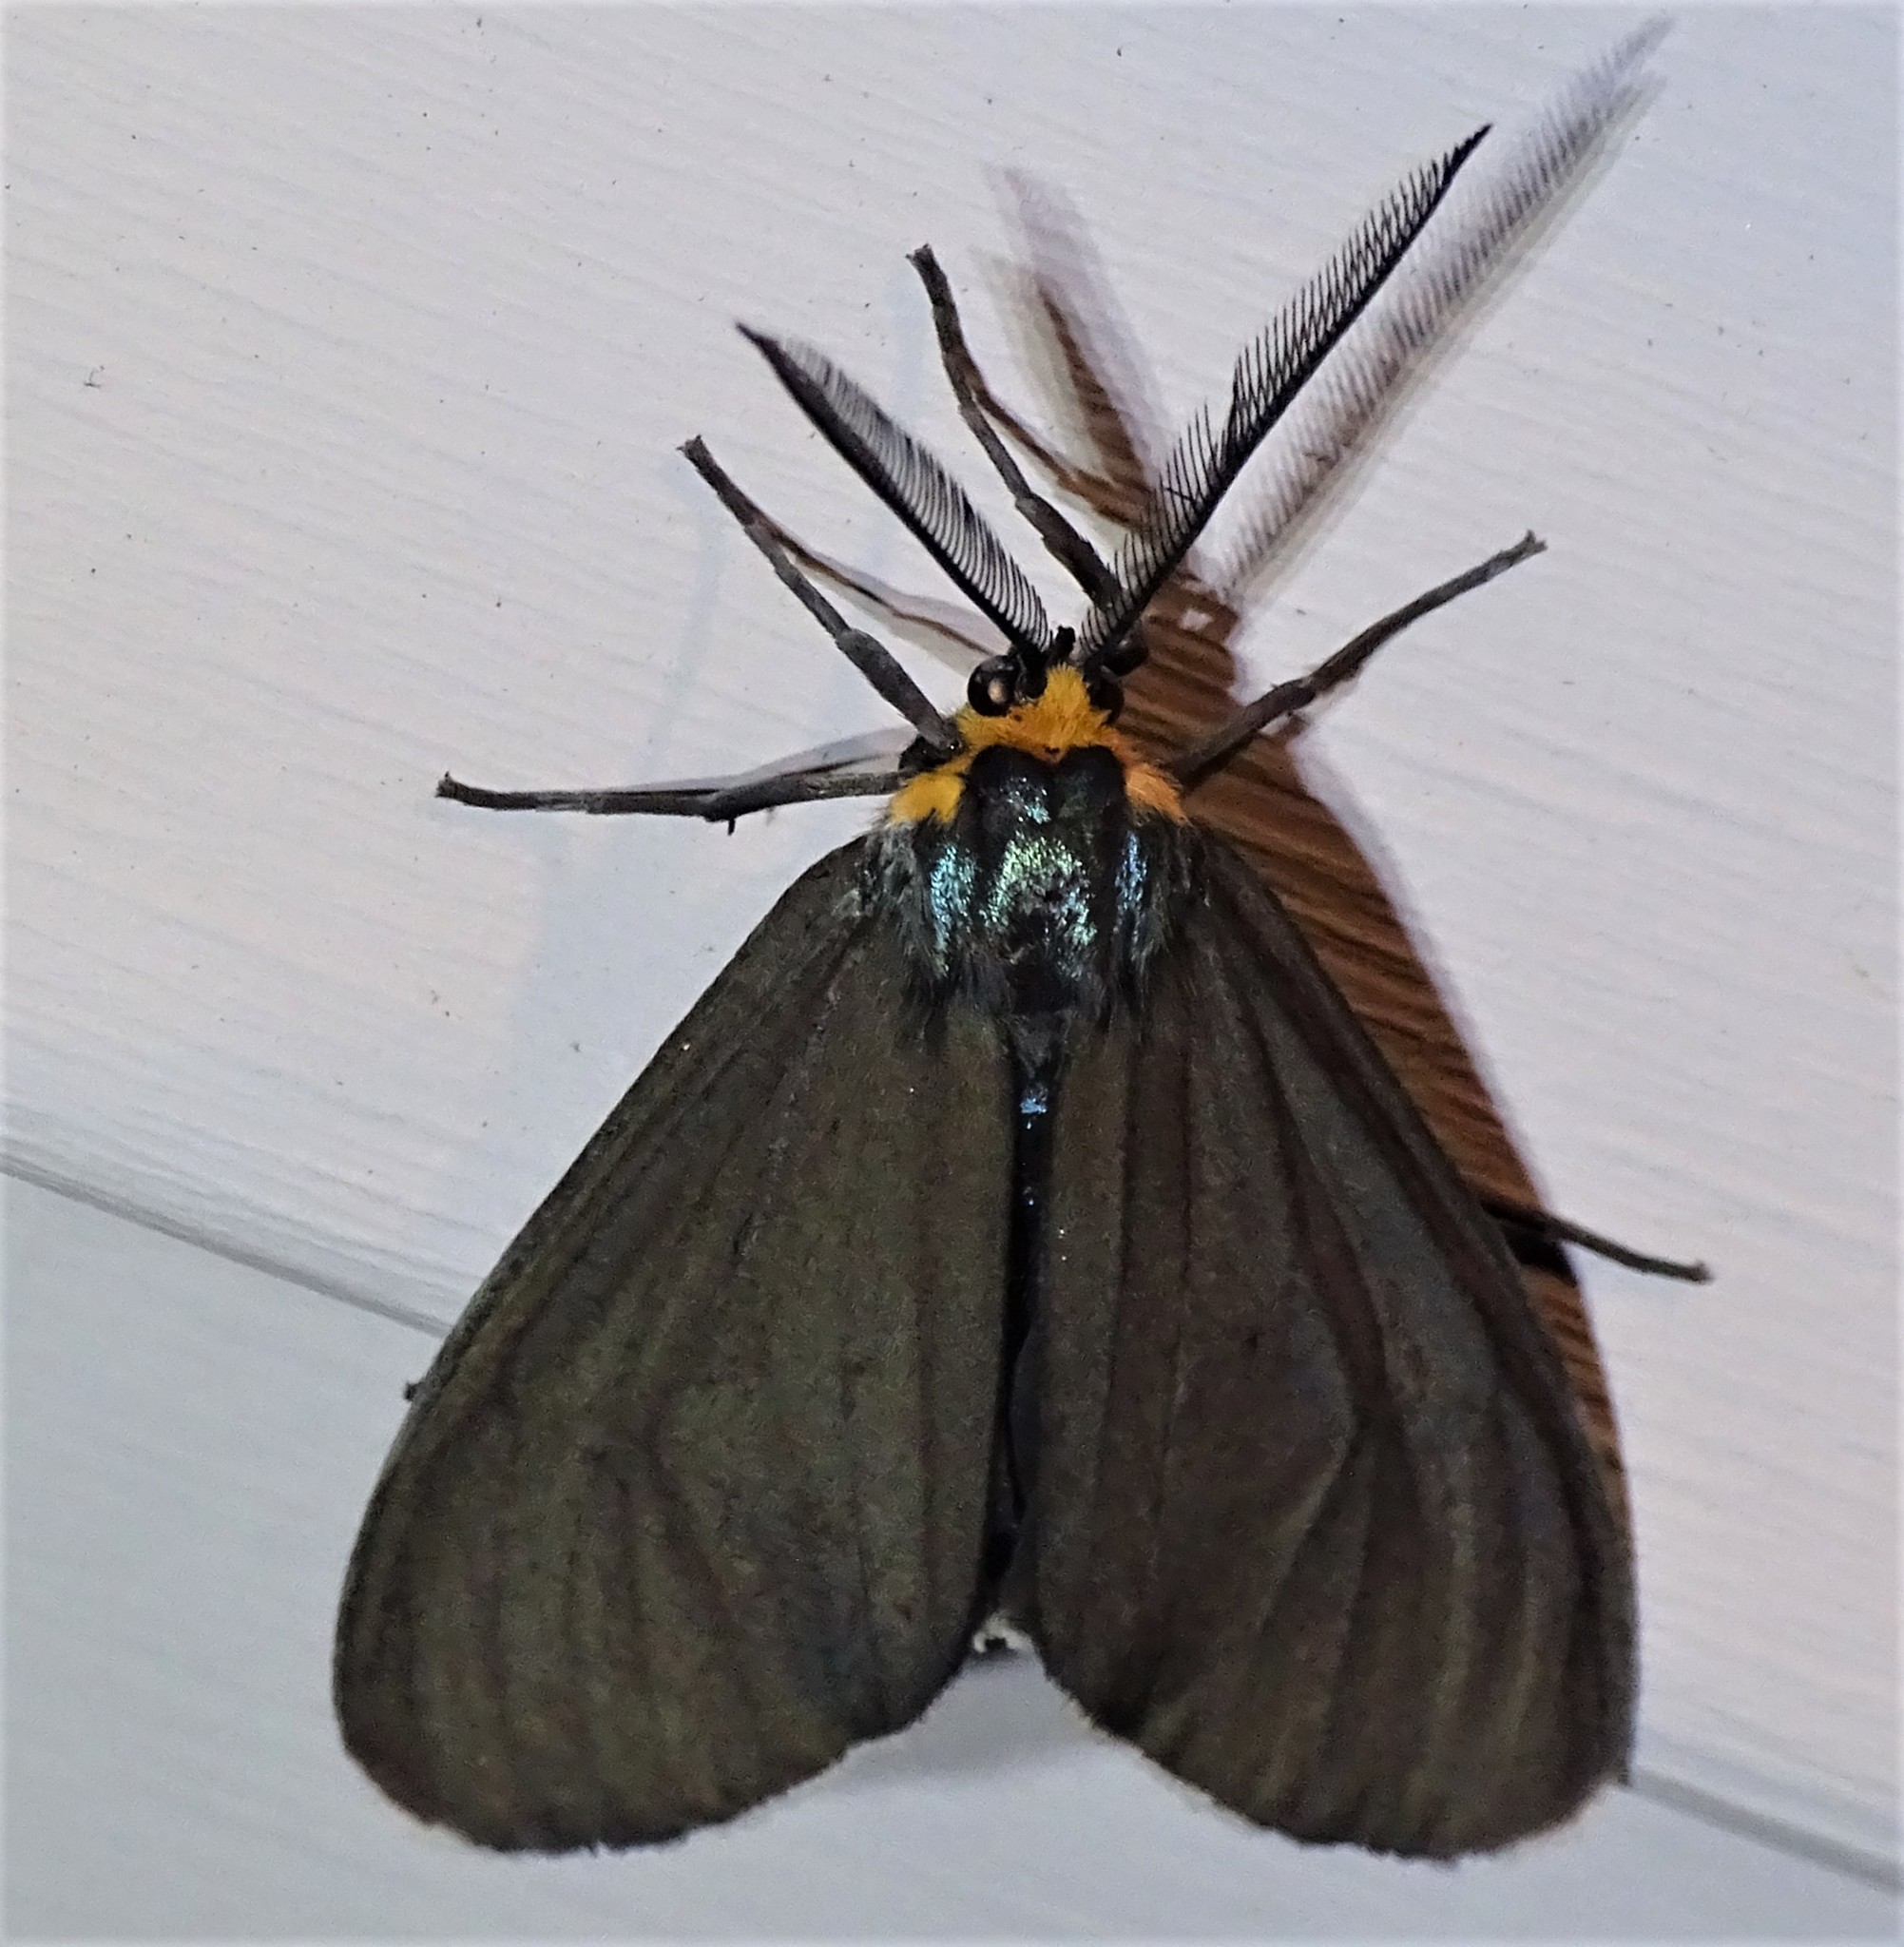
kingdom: Animalia
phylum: Arthropoda
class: Insecta
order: Lepidoptera
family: Erebidae
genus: Ctenucha
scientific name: Ctenucha virginica
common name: Virginia ctenucha moth
